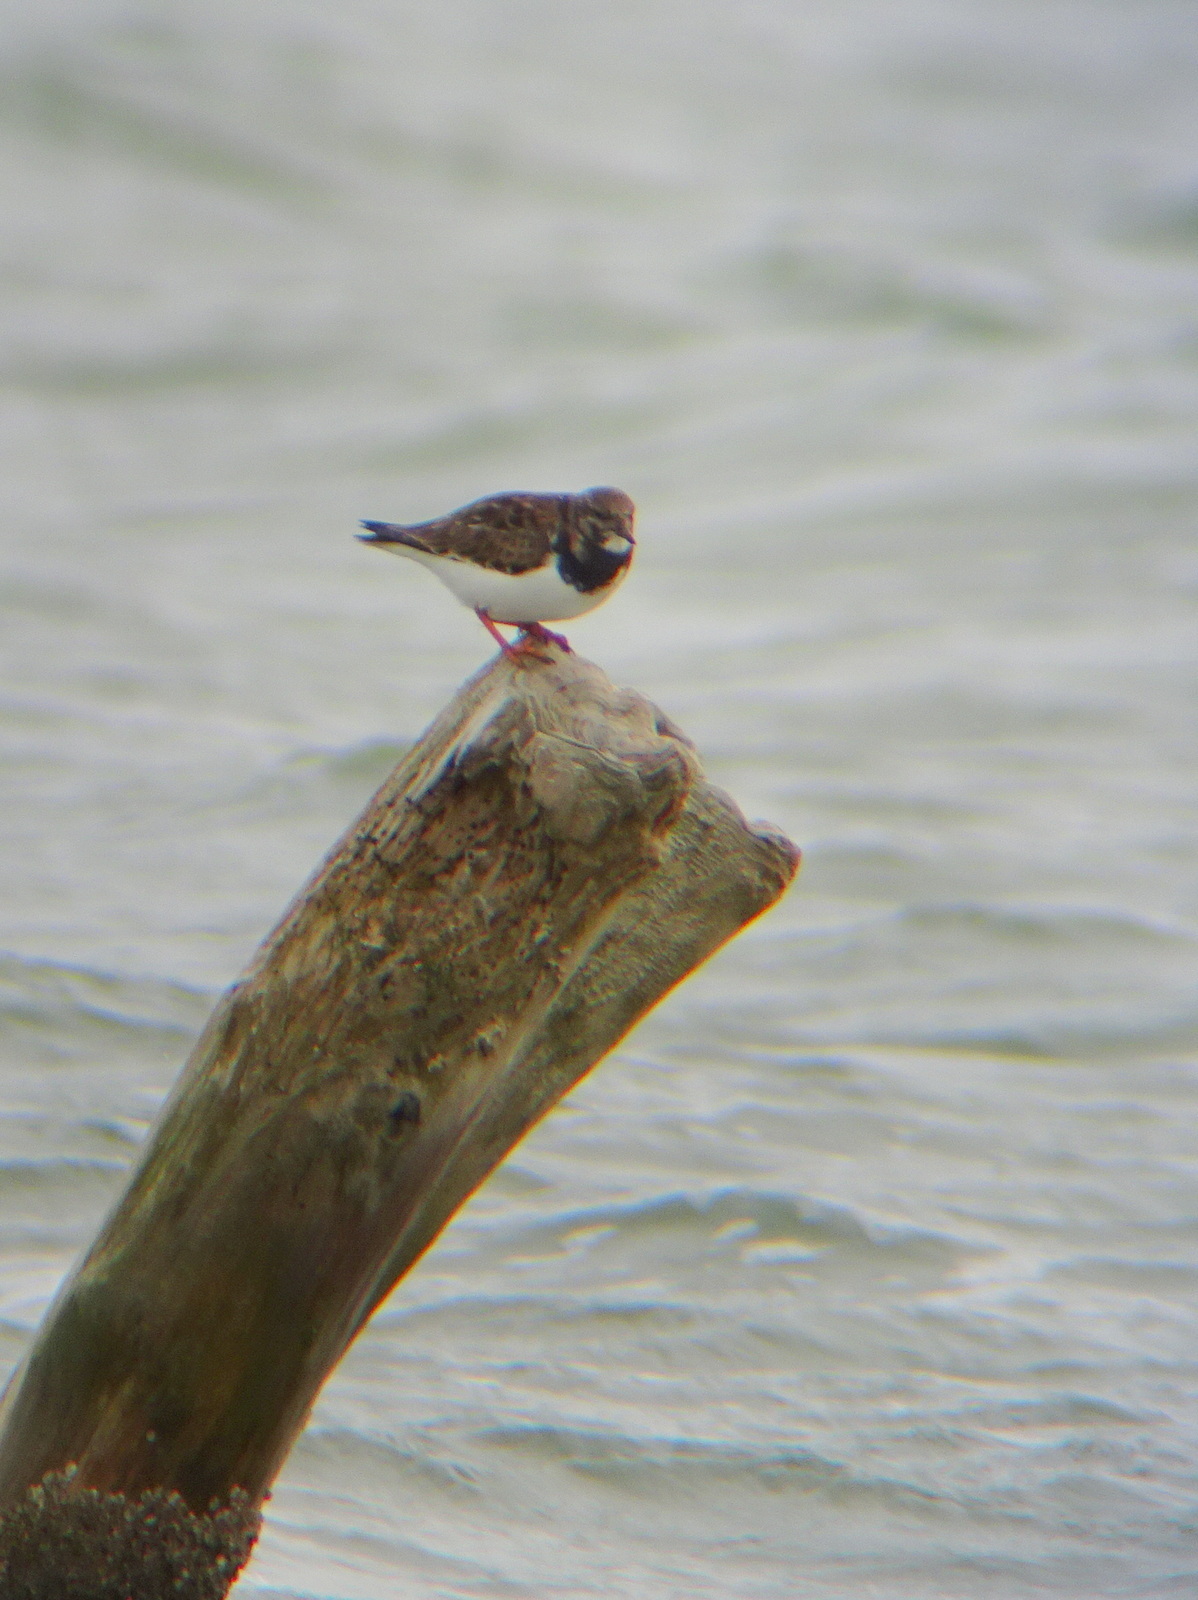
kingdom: Animalia
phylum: Chordata
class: Aves
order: Charadriiformes
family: Scolopacidae
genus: Arenaria
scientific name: Arenaria interpres
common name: Ruddy turnstone
